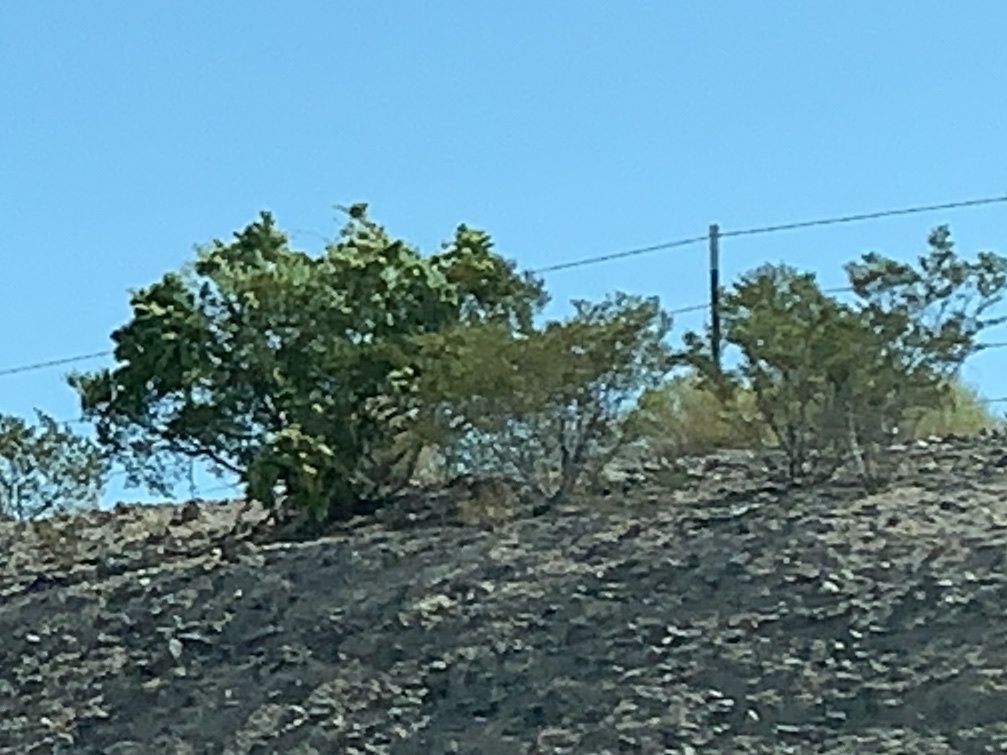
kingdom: Plantae
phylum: Tracheophyta
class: Magnoliopsida
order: Zygophyllales
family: Zygophyllaceae
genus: Larrea
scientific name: Larrea tridentata
